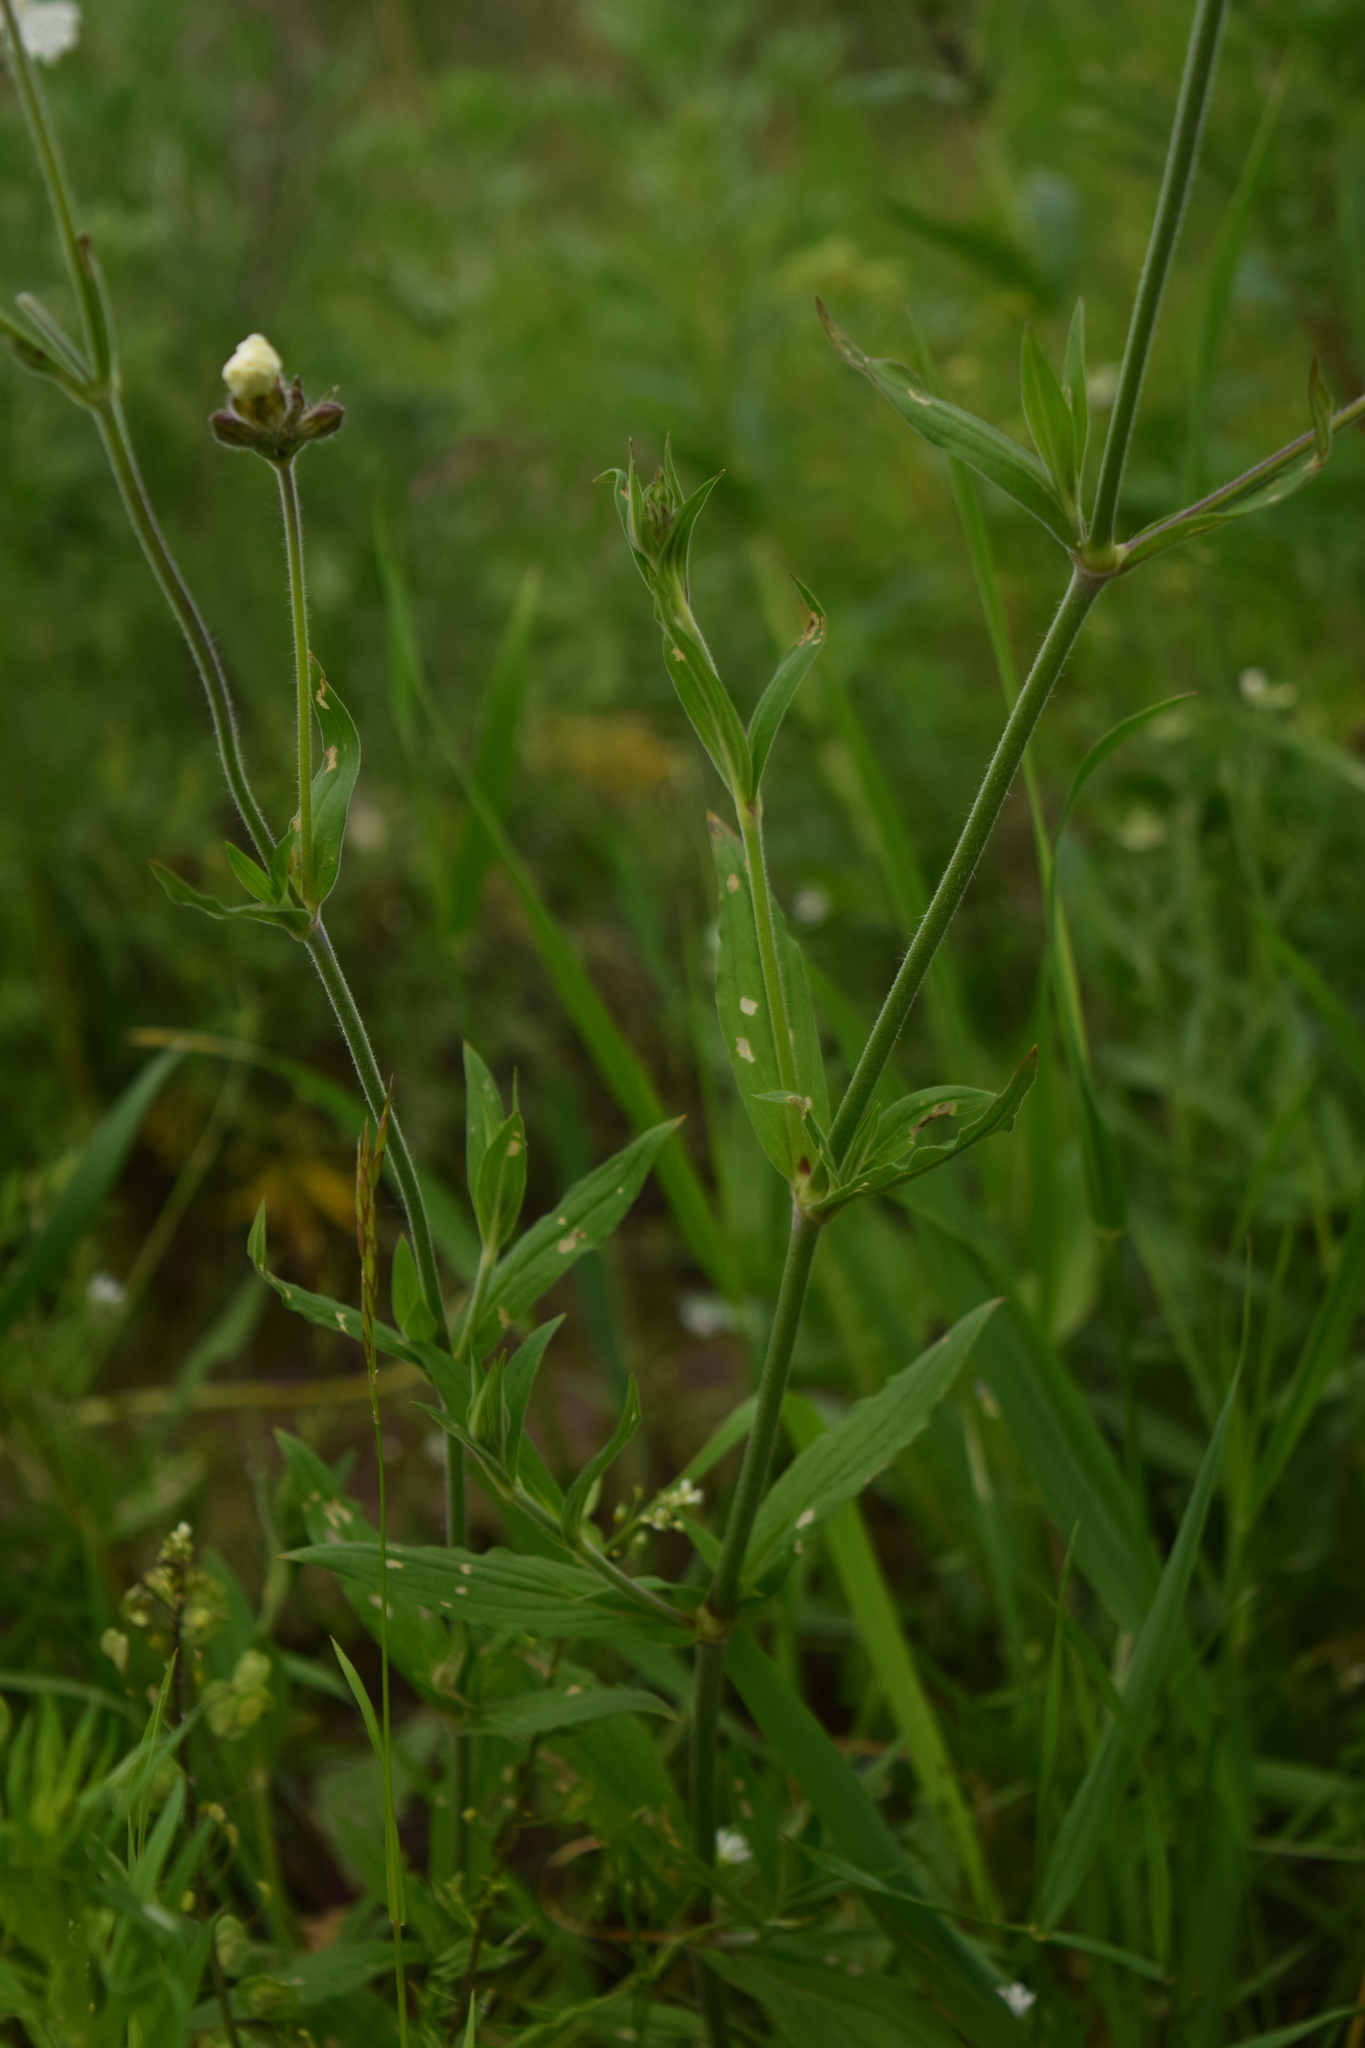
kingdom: Plantae
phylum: Tracheophyta
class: Magnoliopsida
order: Caryophyllales
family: Caryophyllaceae
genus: Silene
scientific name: Silene latifolia
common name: White campion
